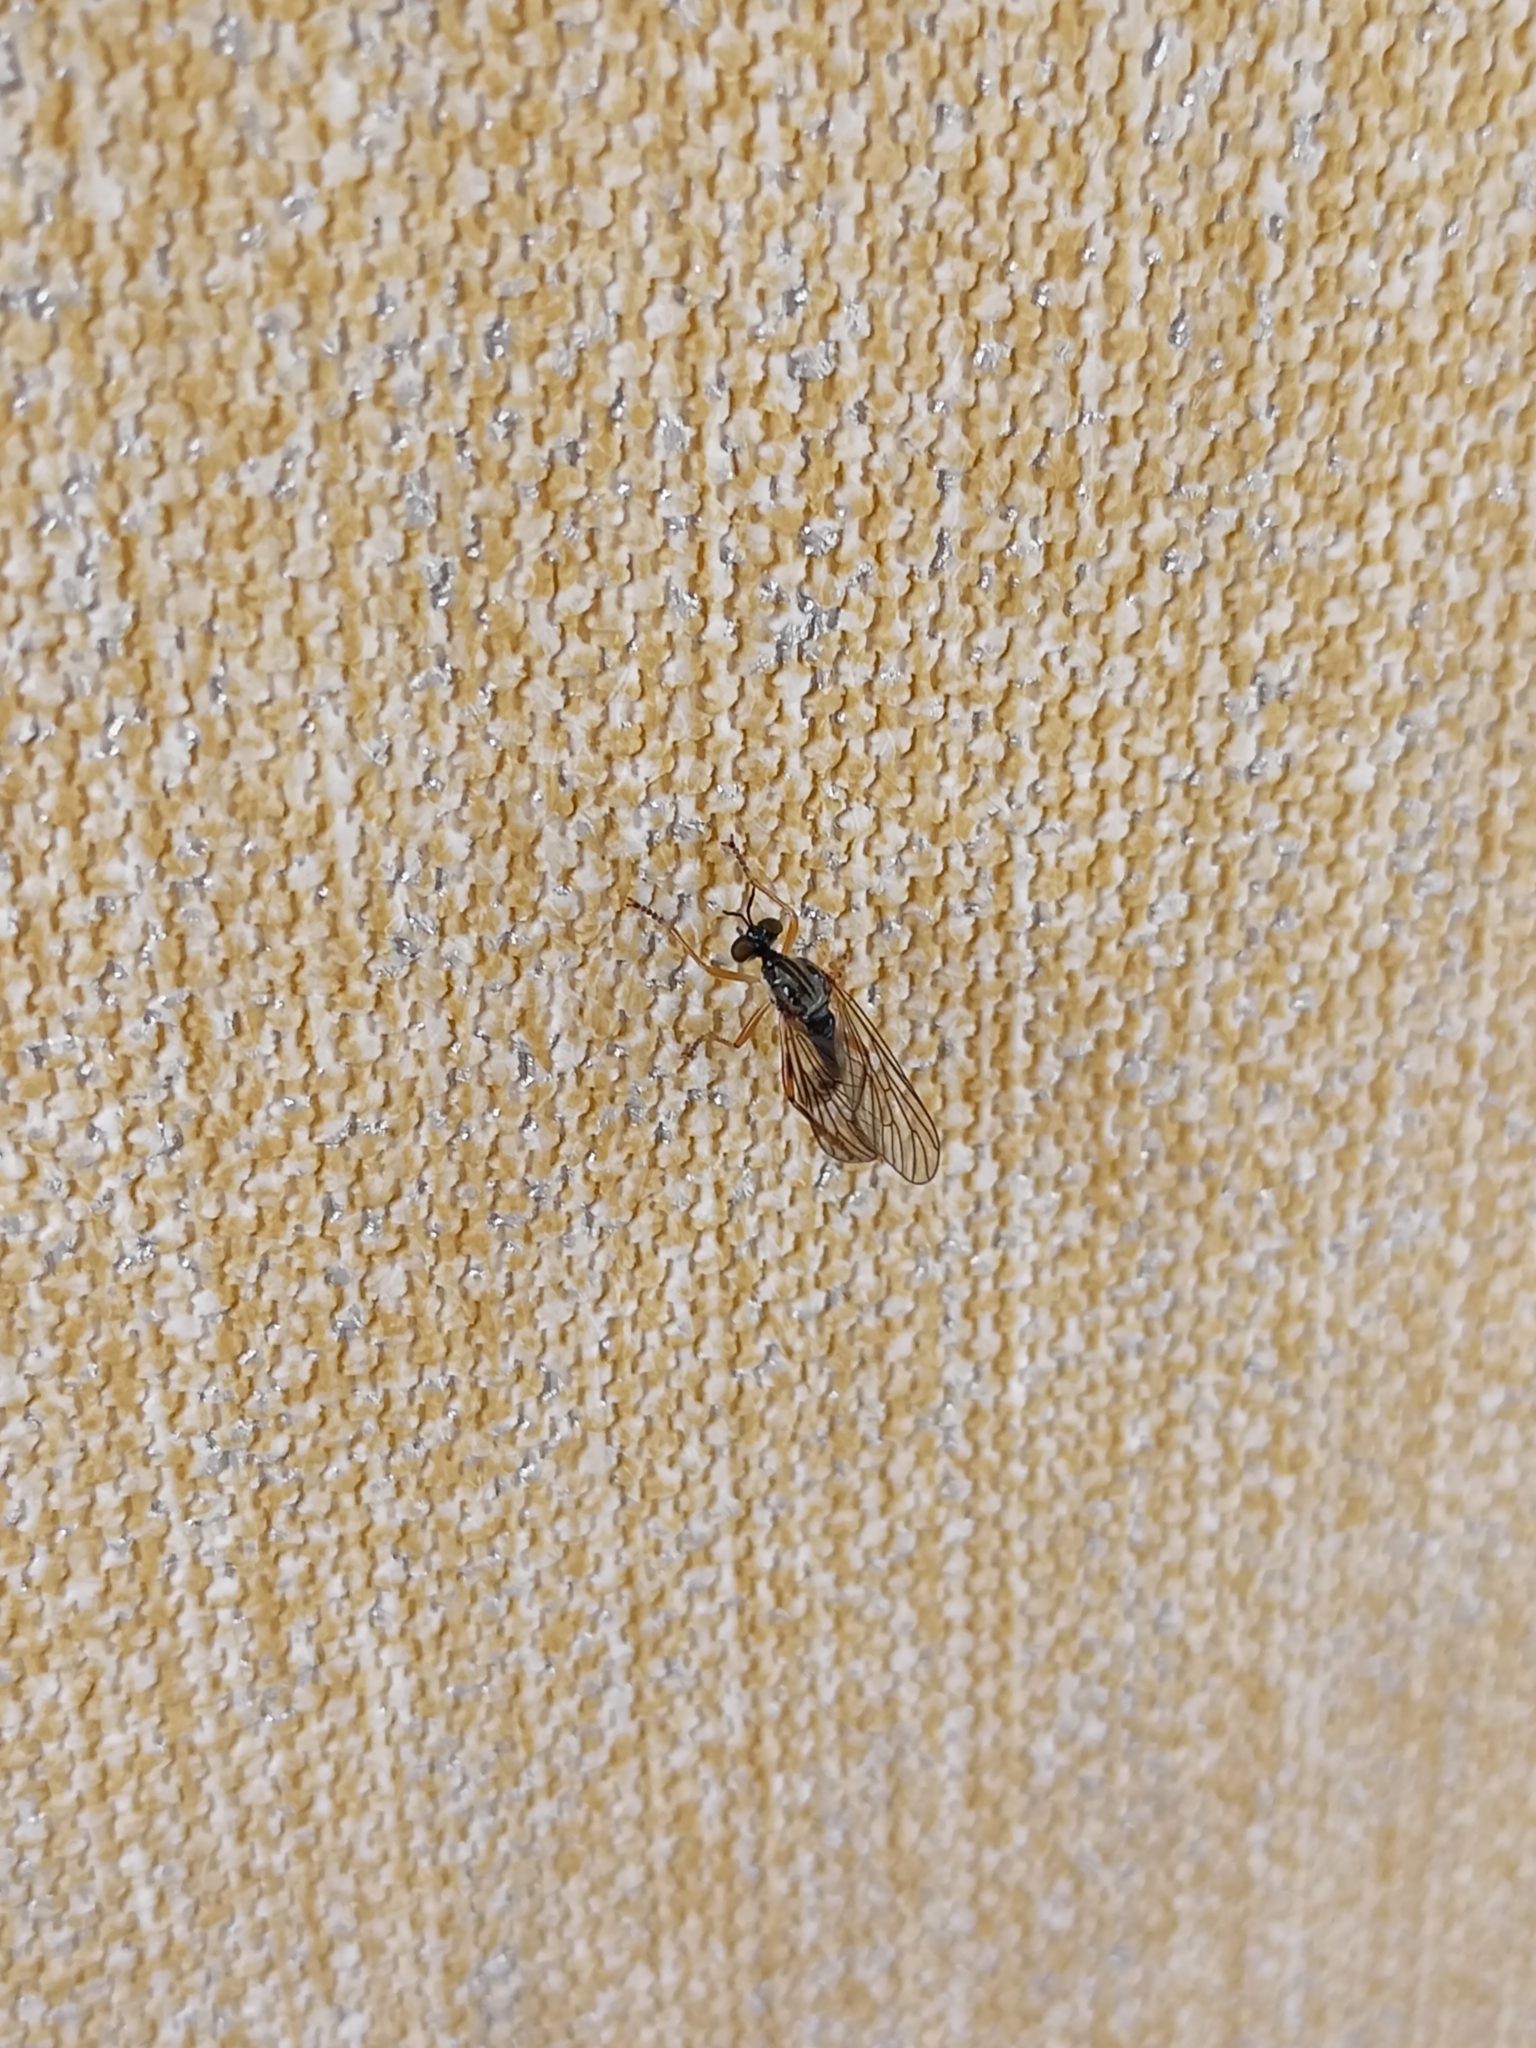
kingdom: Animalia
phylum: Arthropoda
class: Insecta
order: Diptera
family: Asilidae
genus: Dioctria
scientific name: Dioctria linearis
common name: Small yellow-legged robberfly
